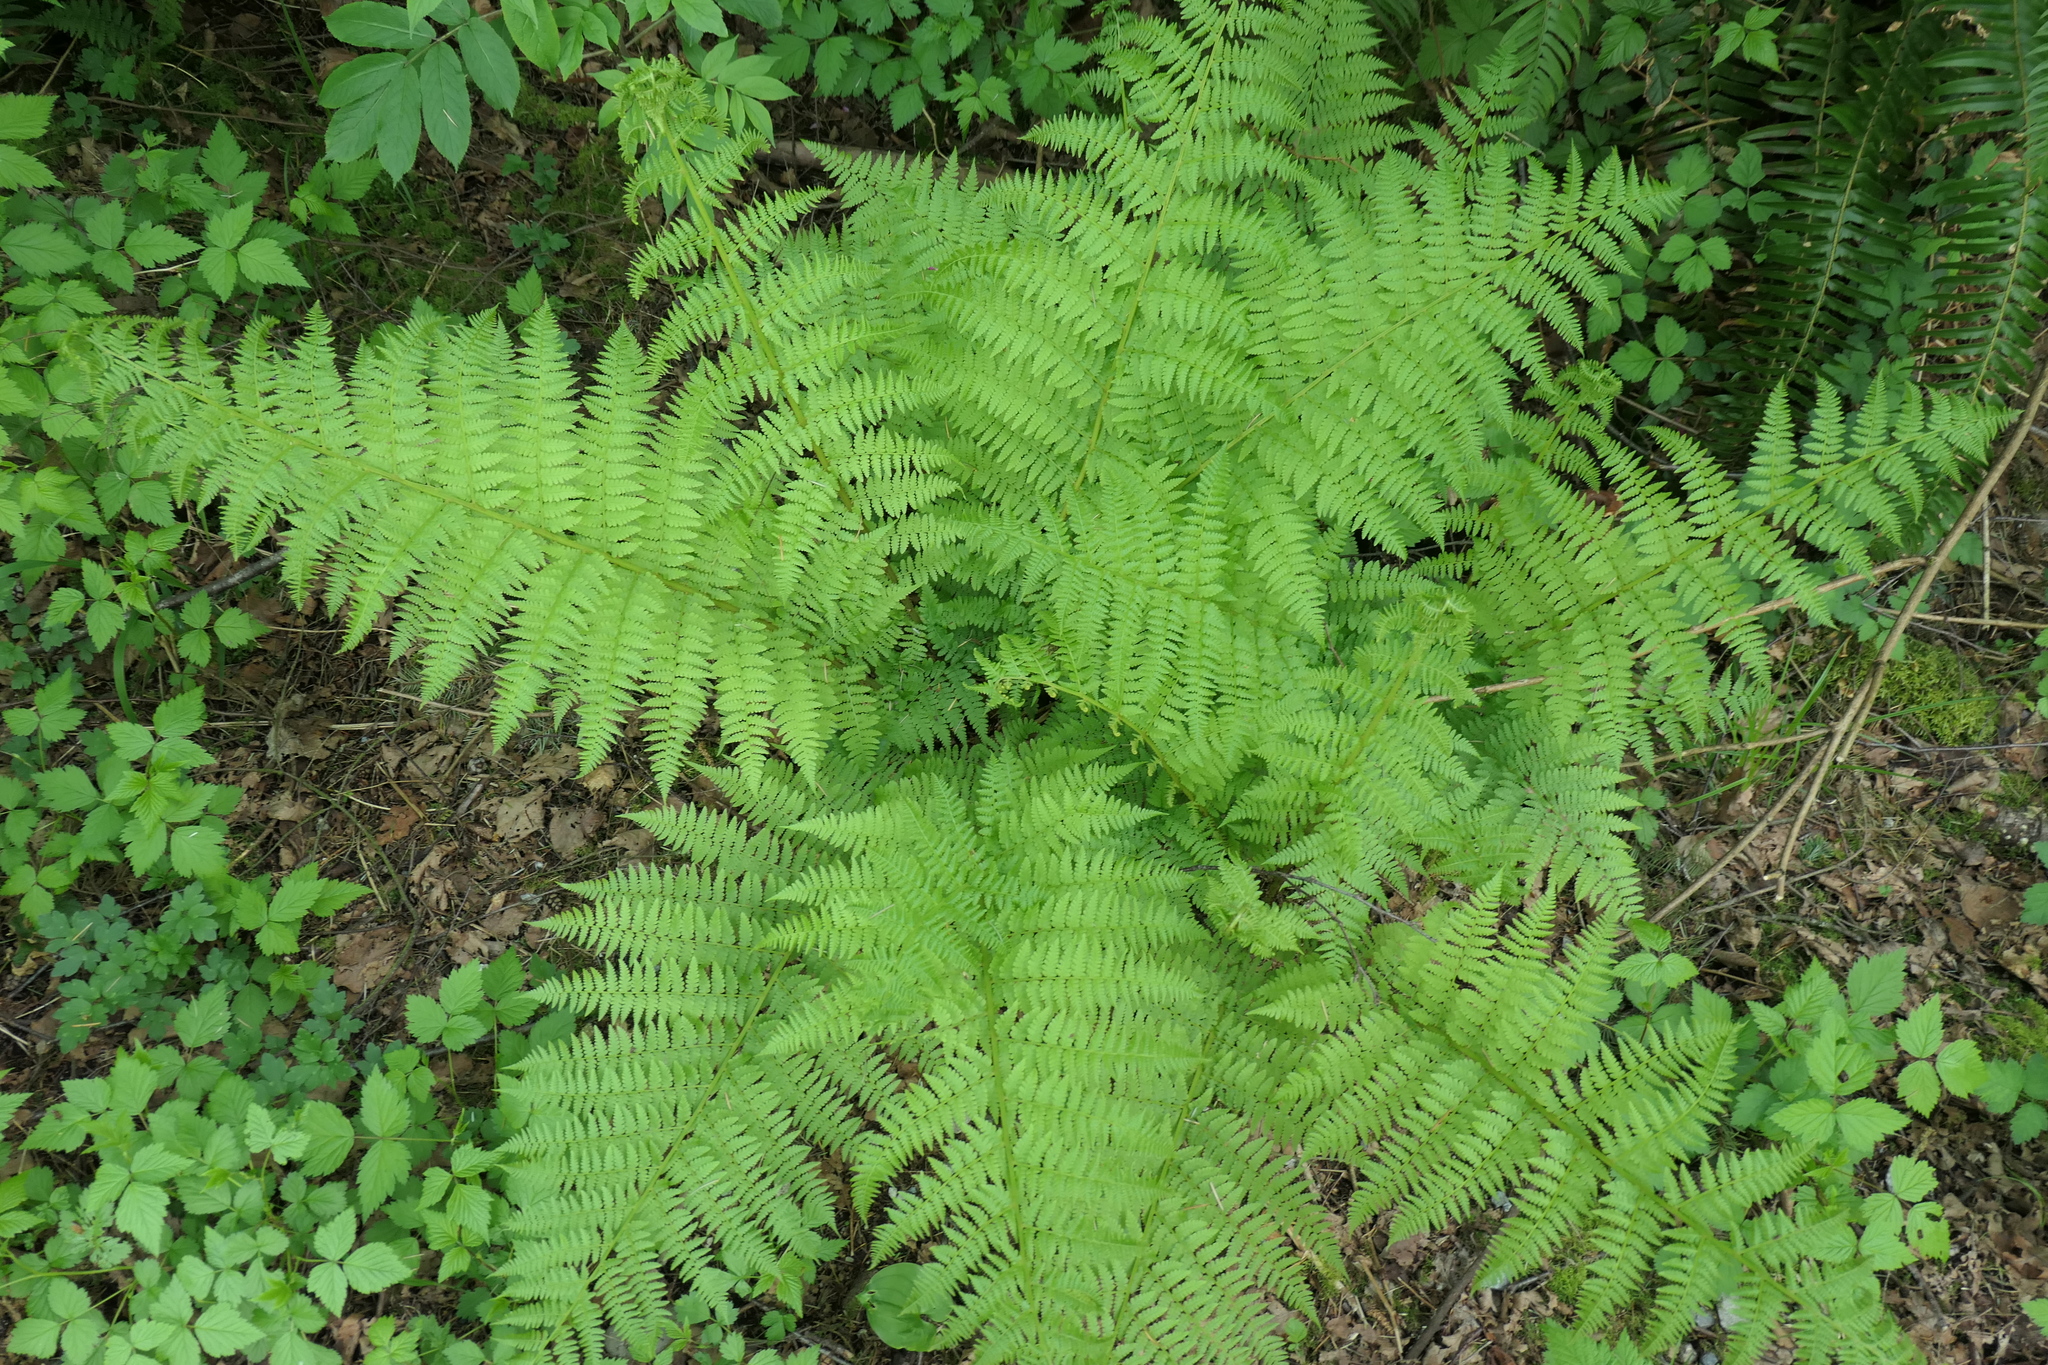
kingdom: Plantae
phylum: Tracheophyta
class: Polypodiopsida
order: Polypodiales
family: Athyriaceae
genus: Athyrium
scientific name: Athyrium filix-femina
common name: Lady fern
